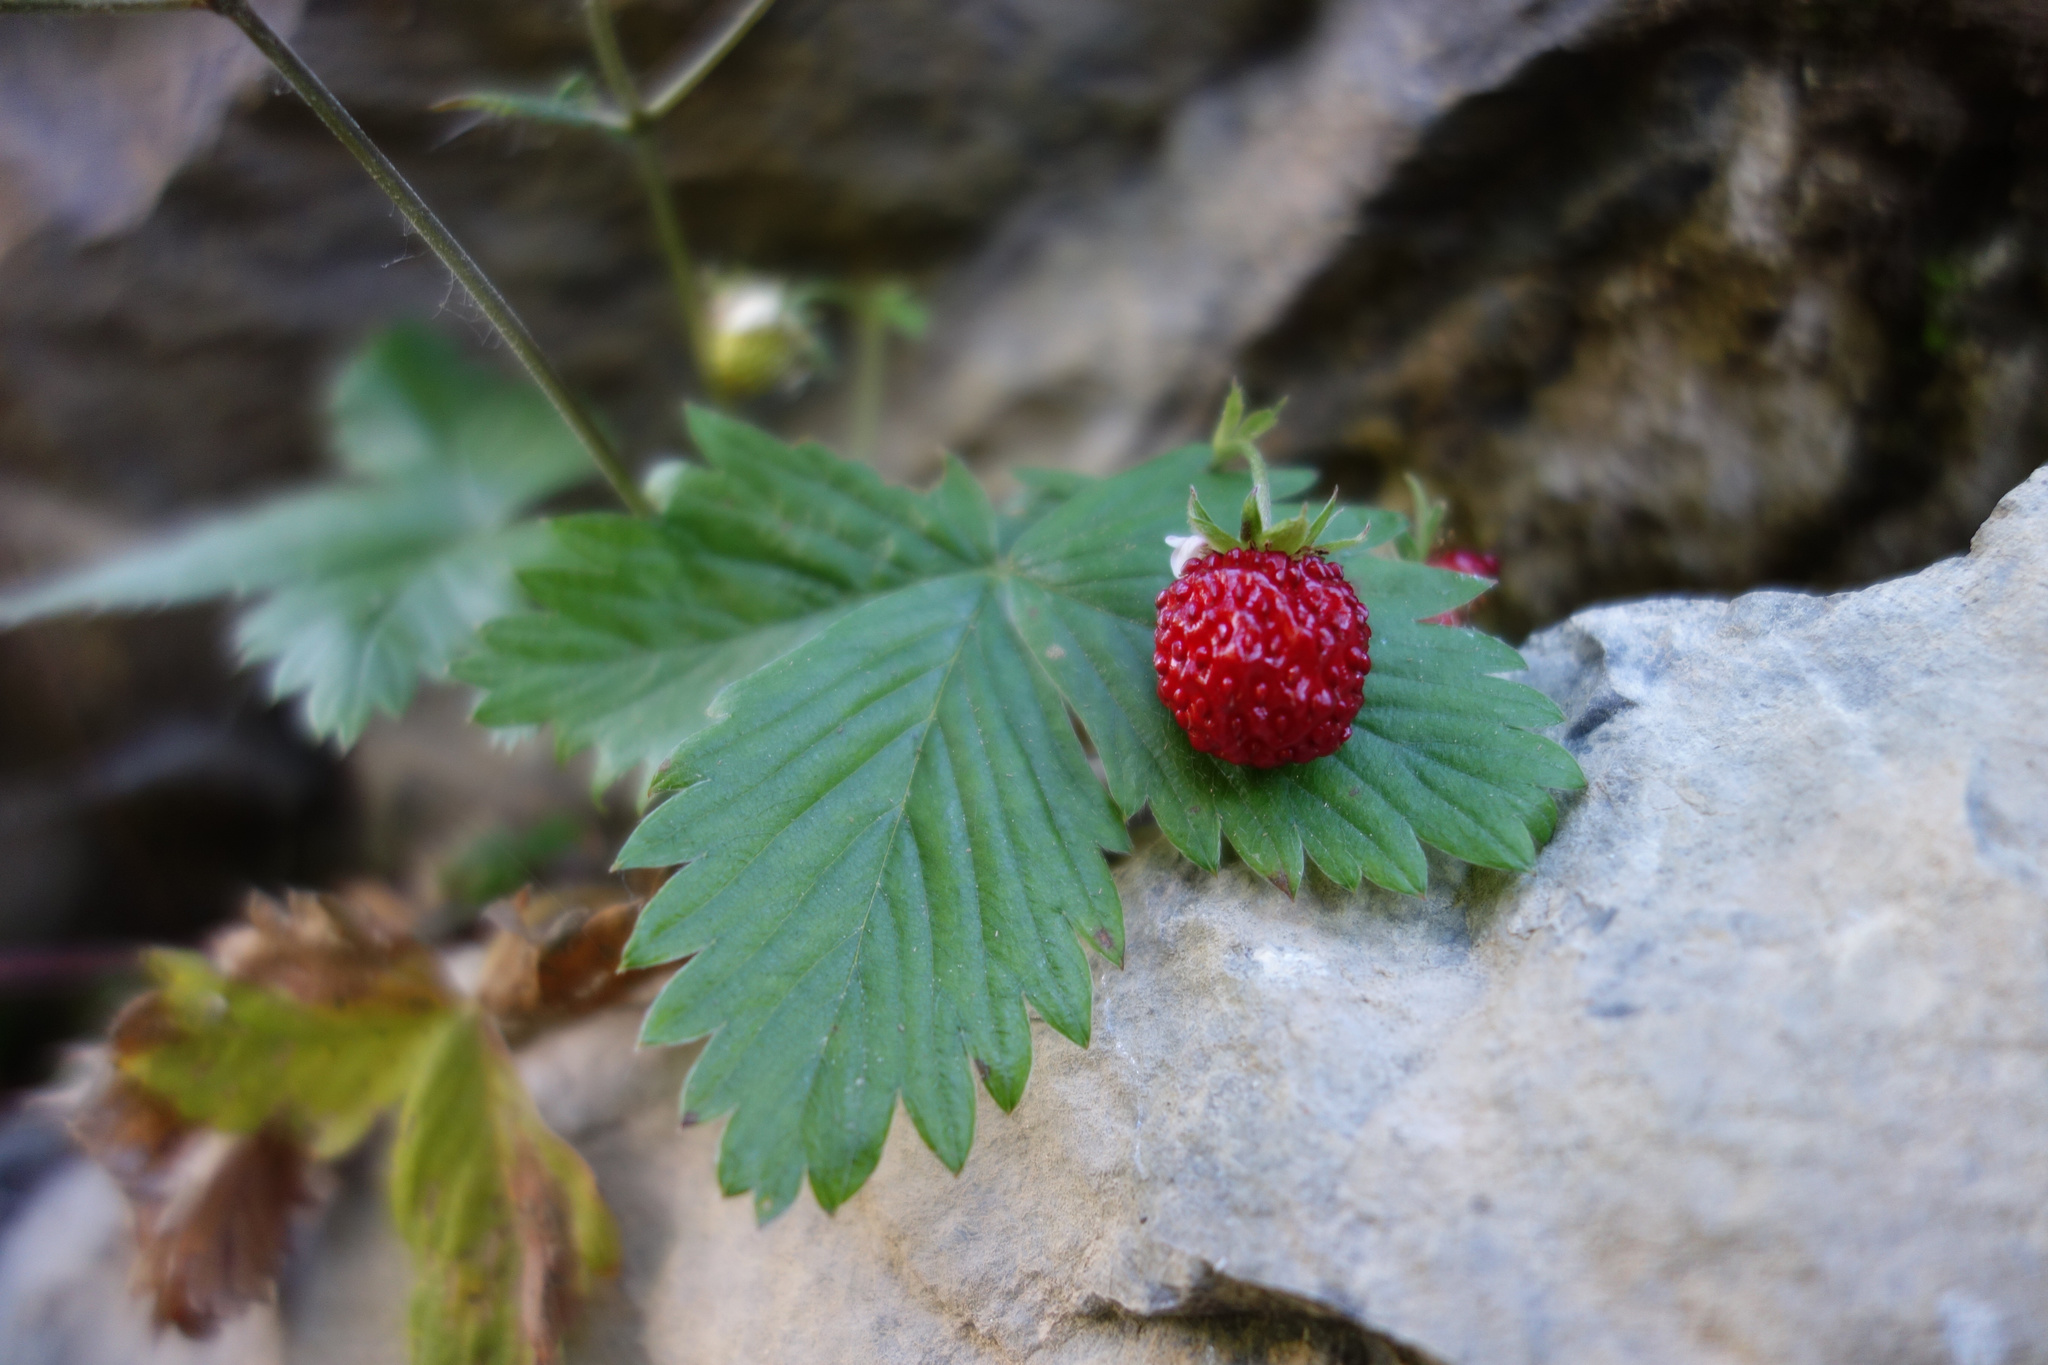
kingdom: Plantae
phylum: Tracheophyta
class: Magnoliopsida
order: Rosales
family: Rosaceae
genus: Fragaria
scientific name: Fragaria vesca
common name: Wild strawberry
